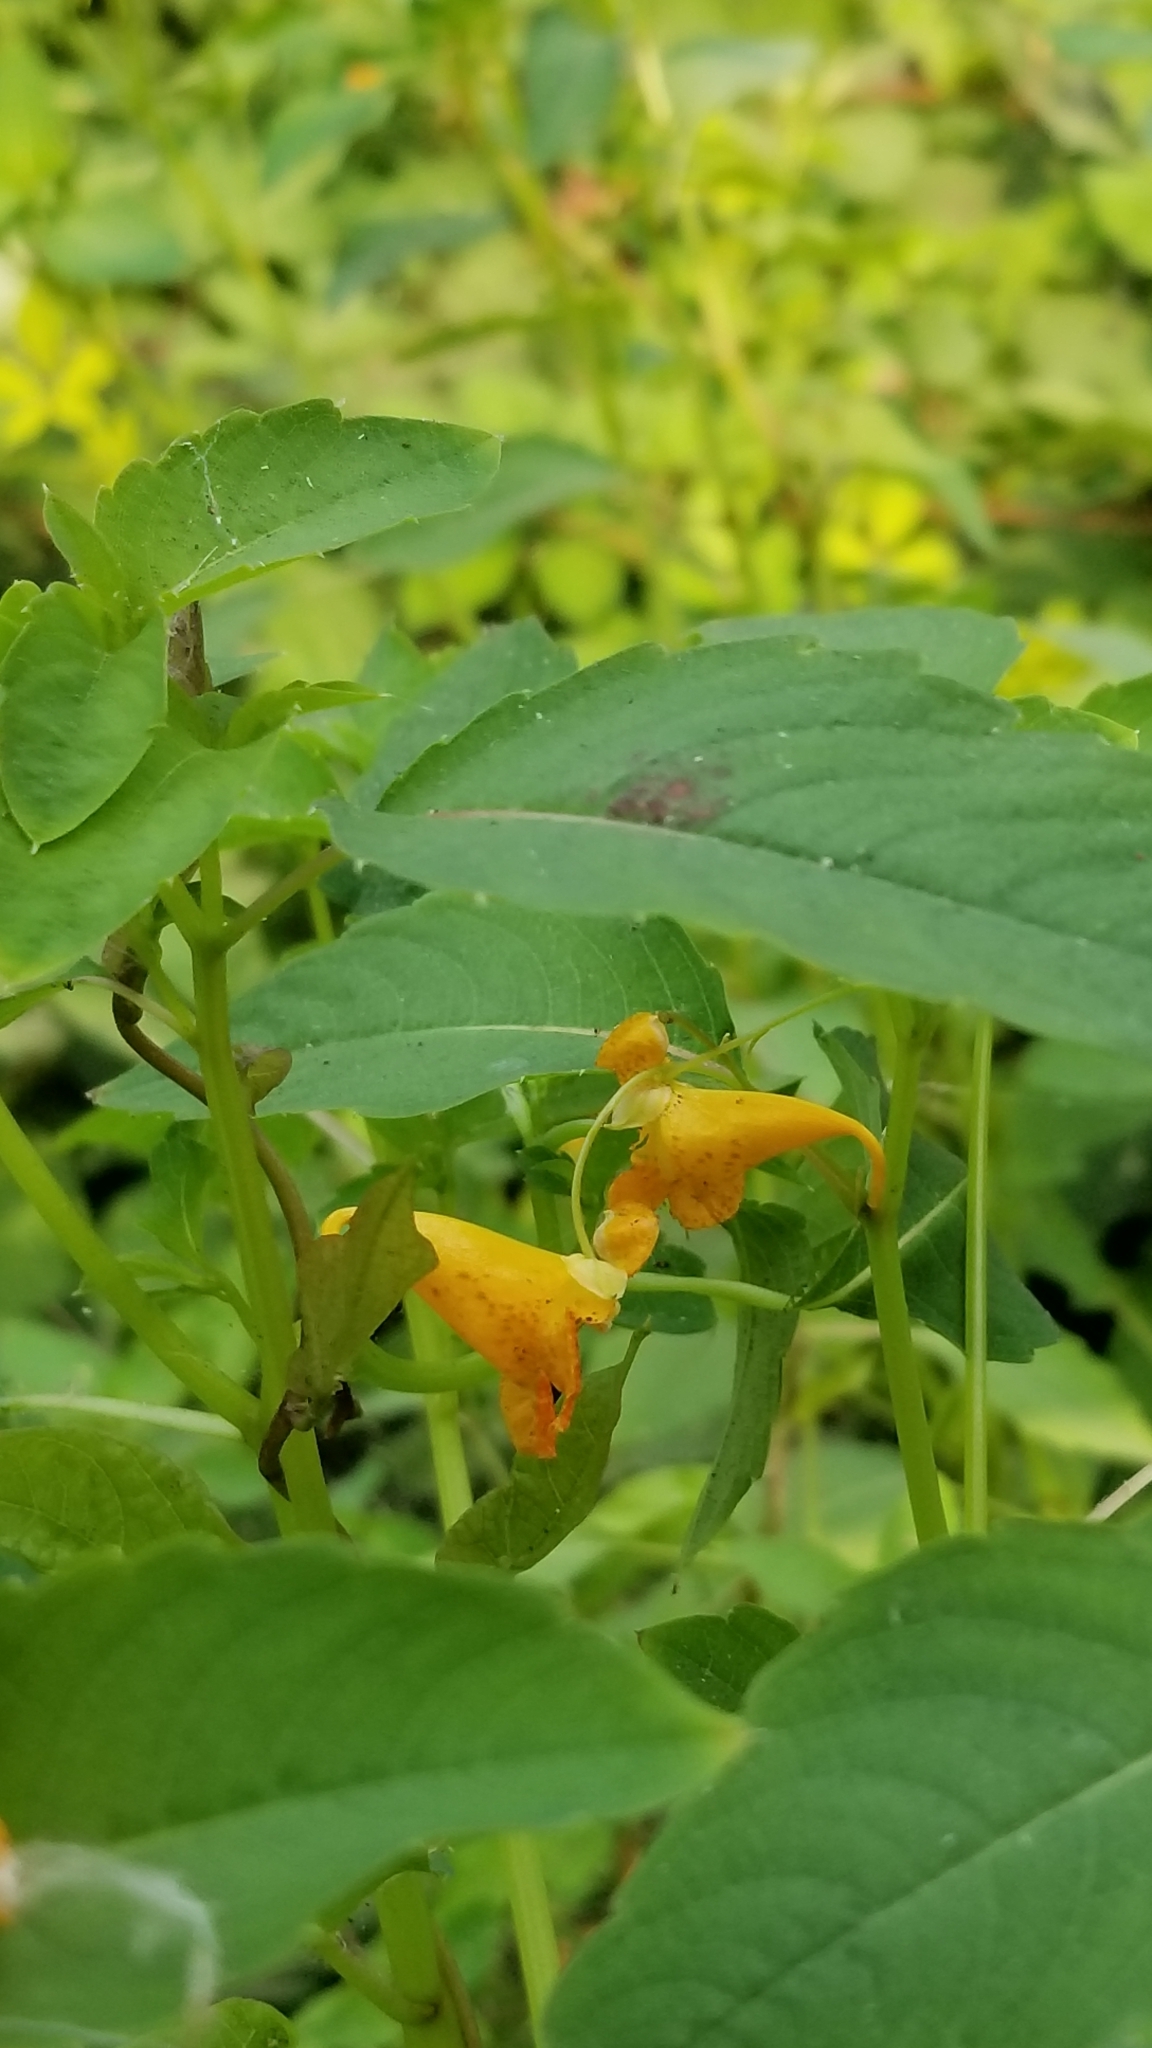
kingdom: Plantae
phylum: Tracheophyta
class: Magnoliopsida
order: Ericales
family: Balsaminaceae
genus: Impatiens
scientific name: Impatiens capensis
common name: Orange balsam
